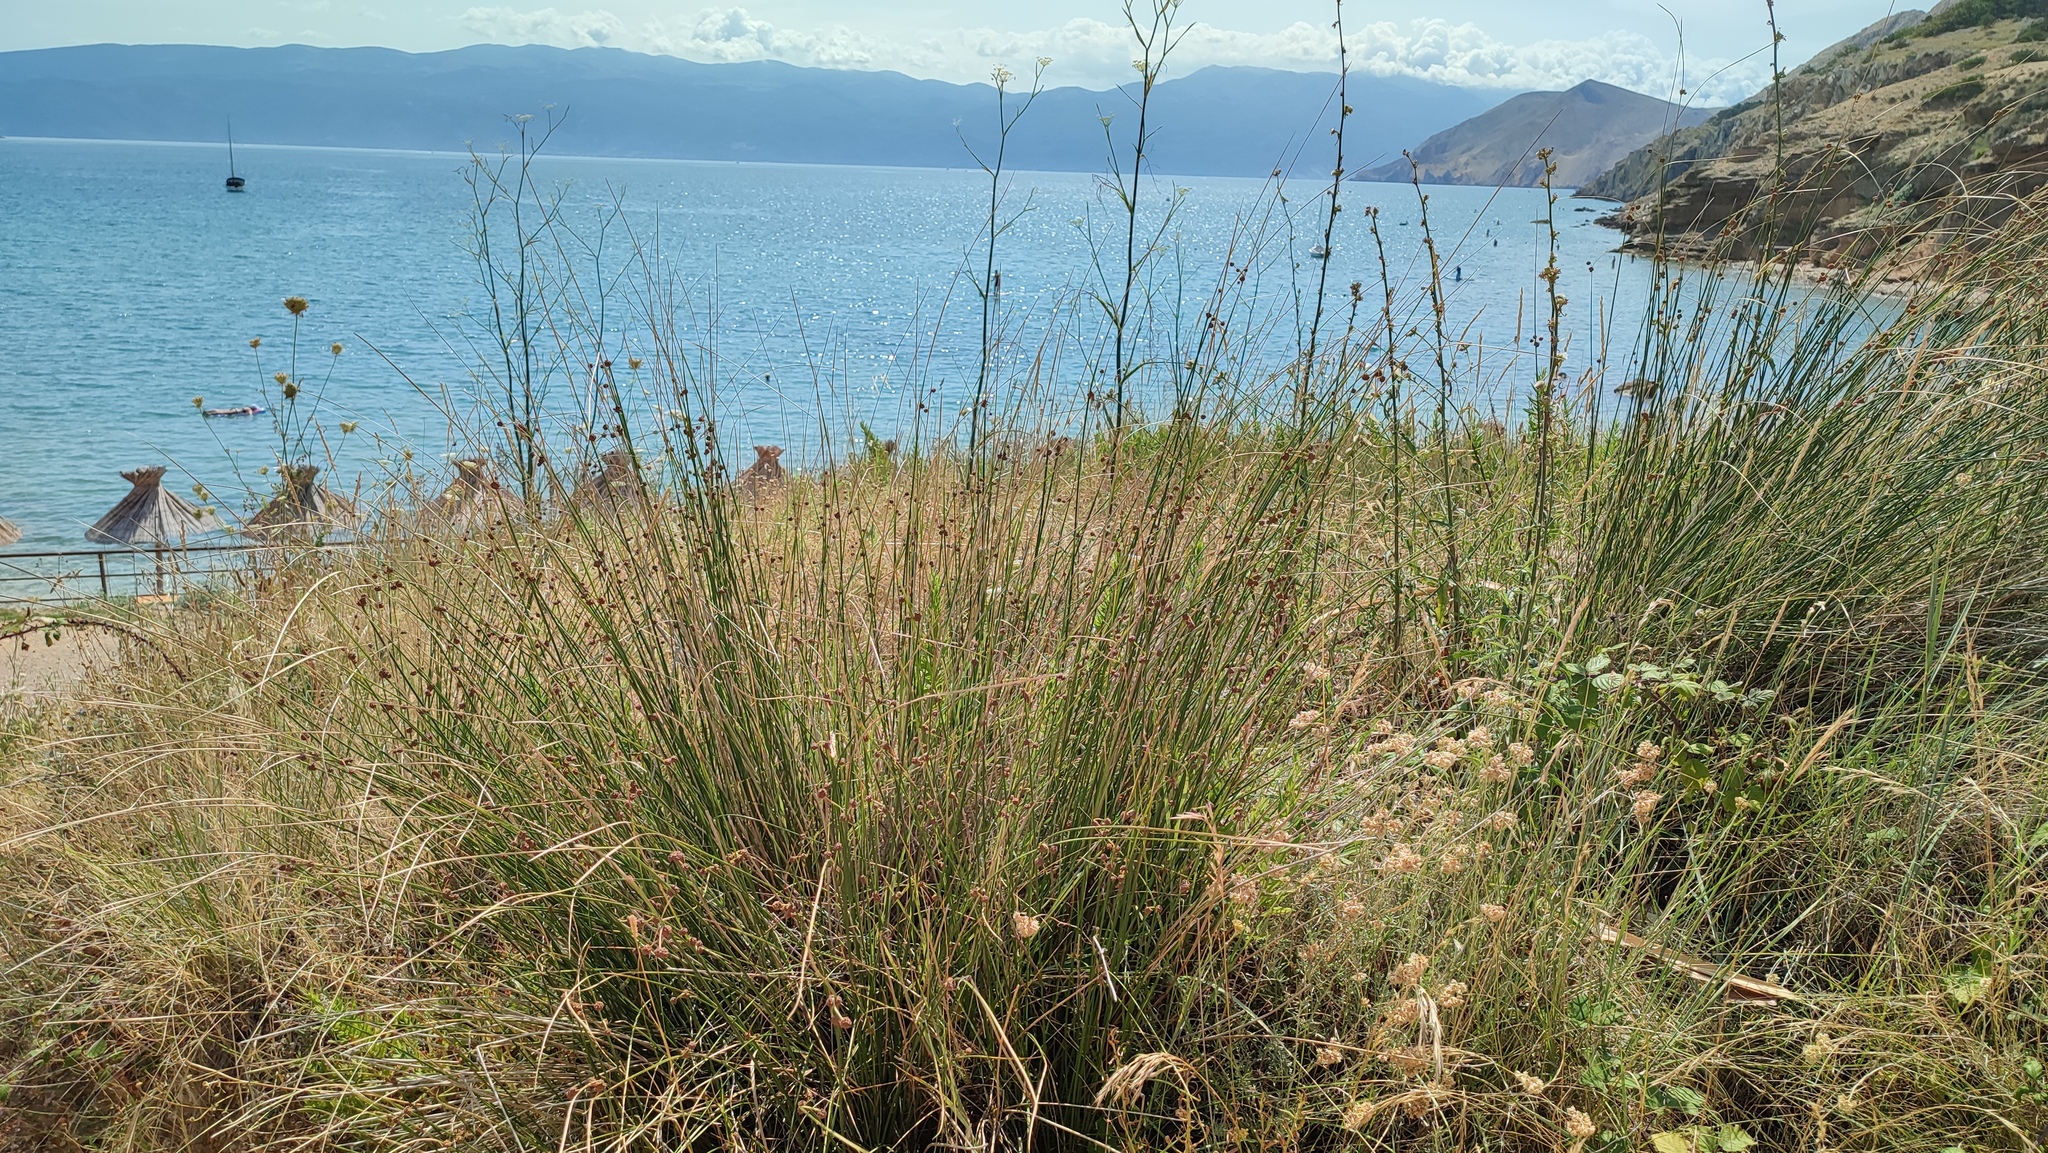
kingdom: Plantae
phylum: Tracheophyta
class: Liliopsida
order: Poales
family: Cyperaceae
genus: Scirpoides
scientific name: Scirpoides holoschoenus
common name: Round-headed club-rush
